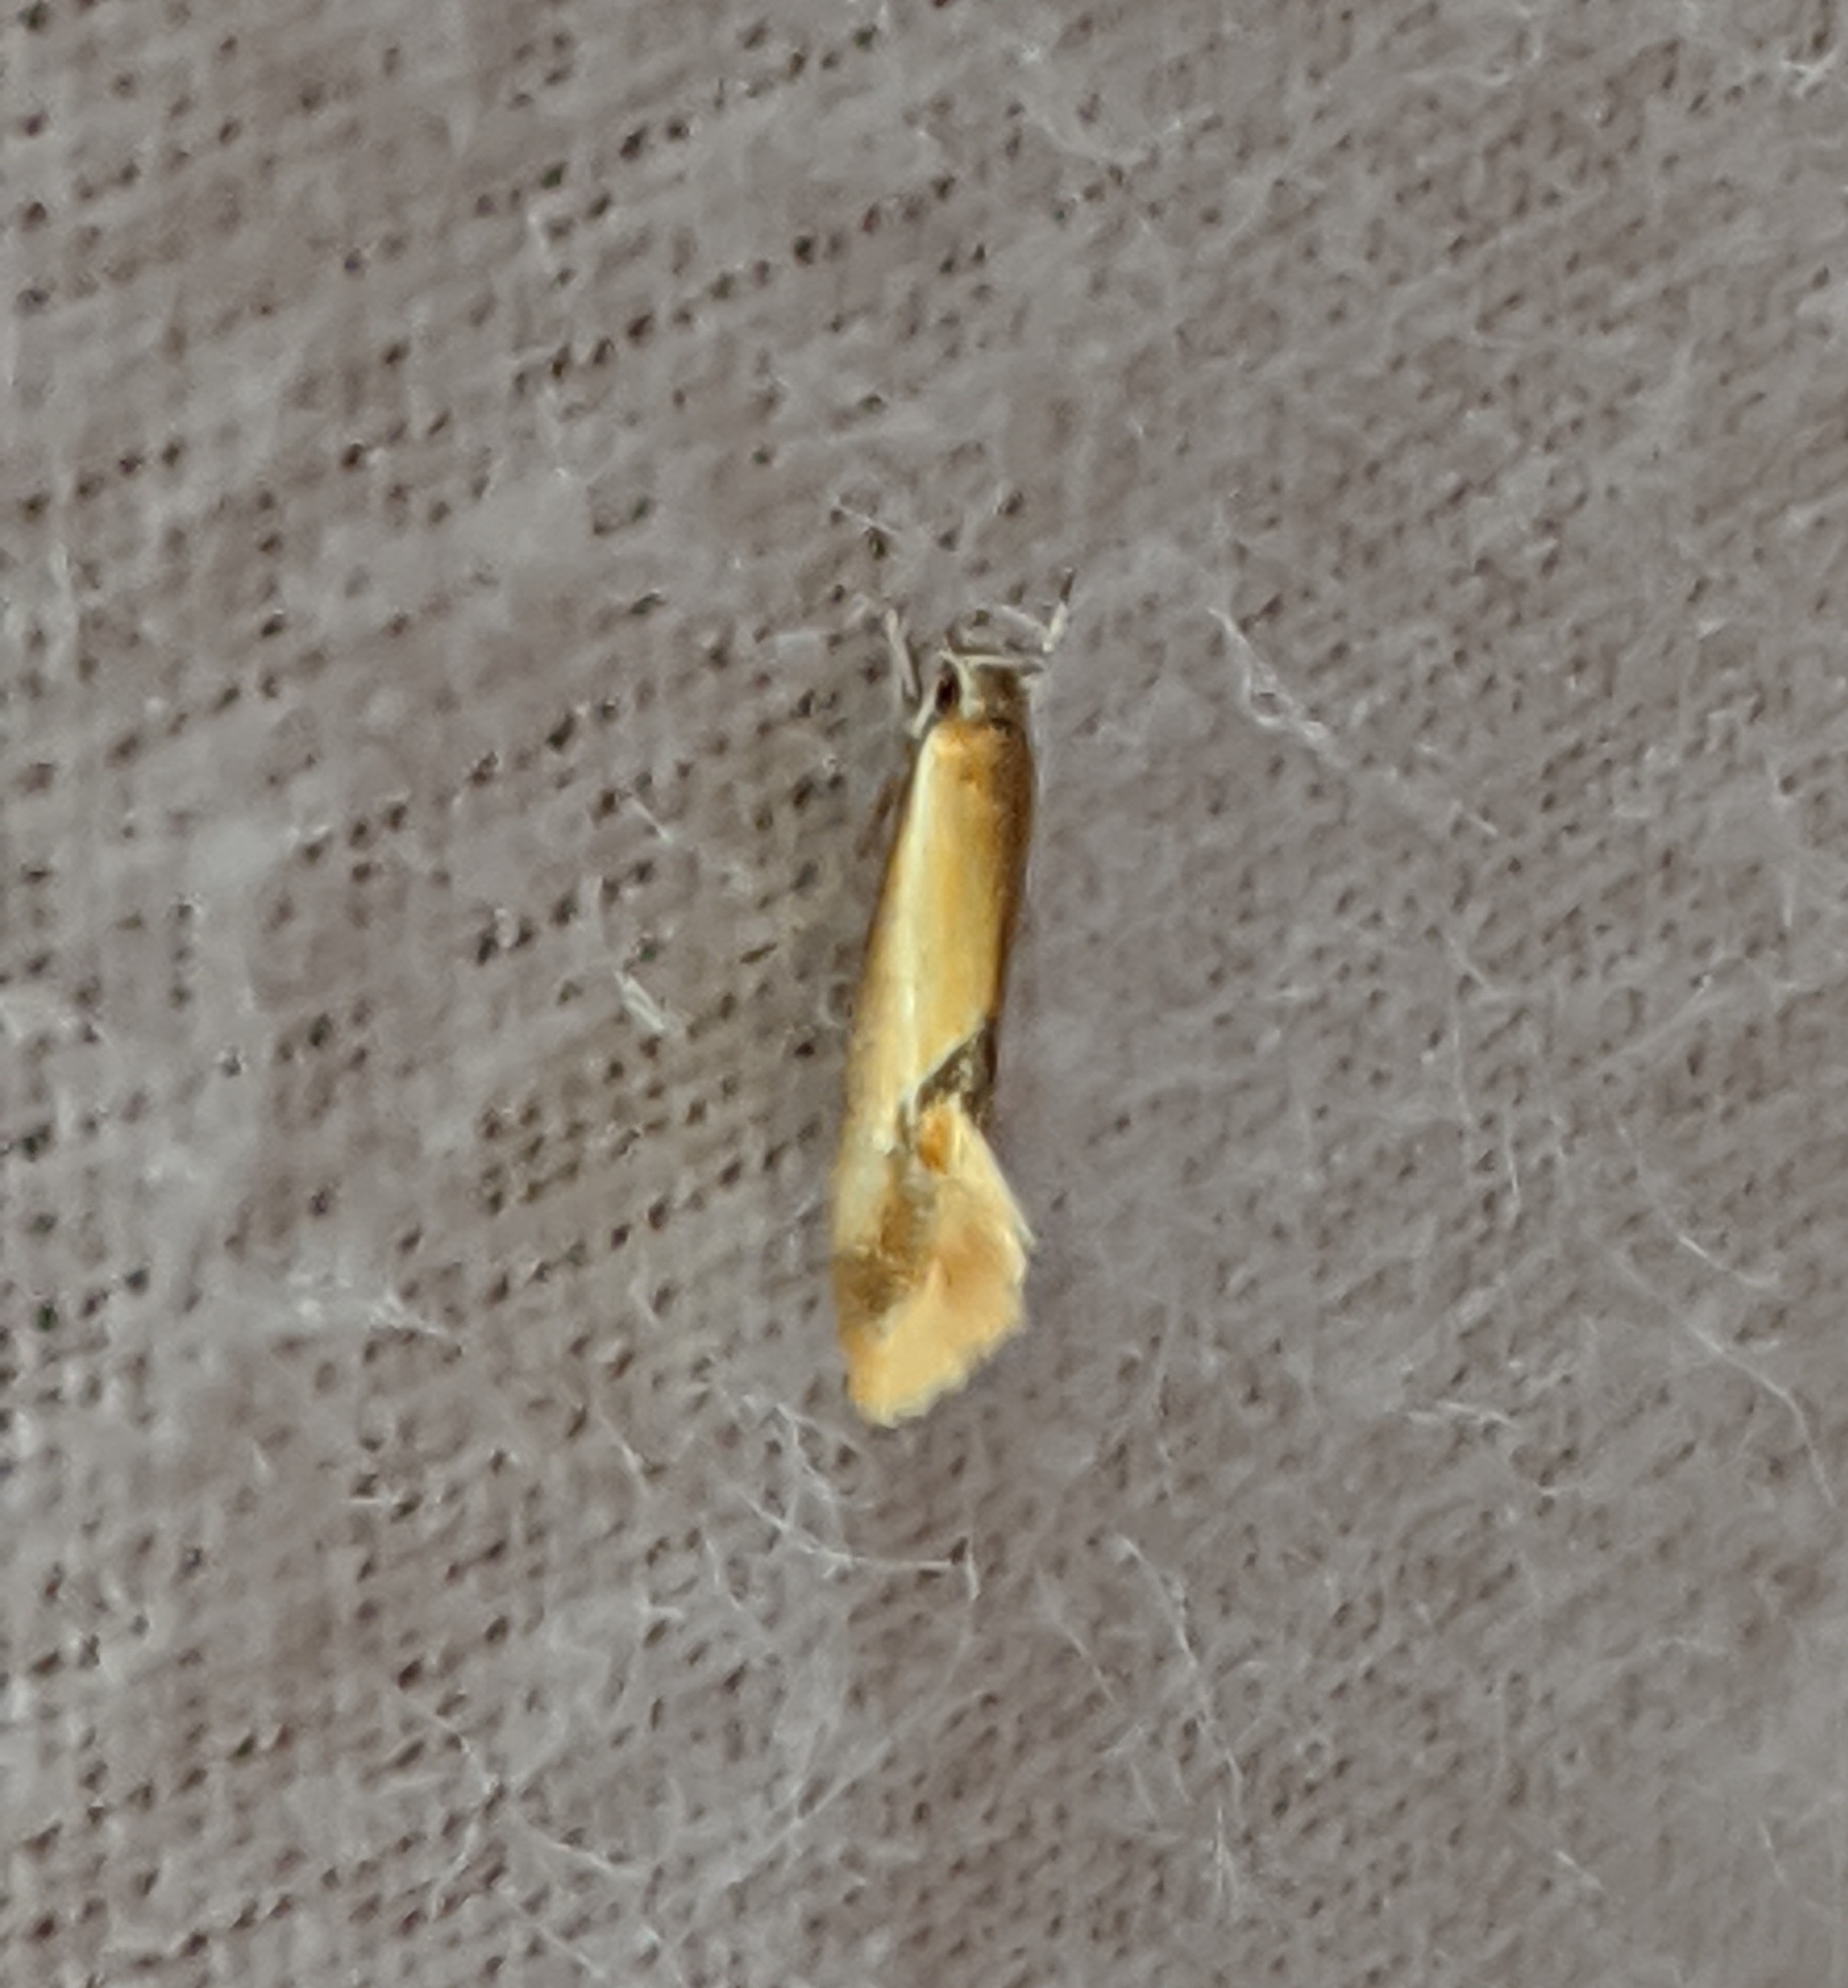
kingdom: Animalia
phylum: Arthropoda
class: Insecta
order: Lepidoptera
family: Oecophoridae
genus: Batia
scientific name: Batia lunaris
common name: Moth
